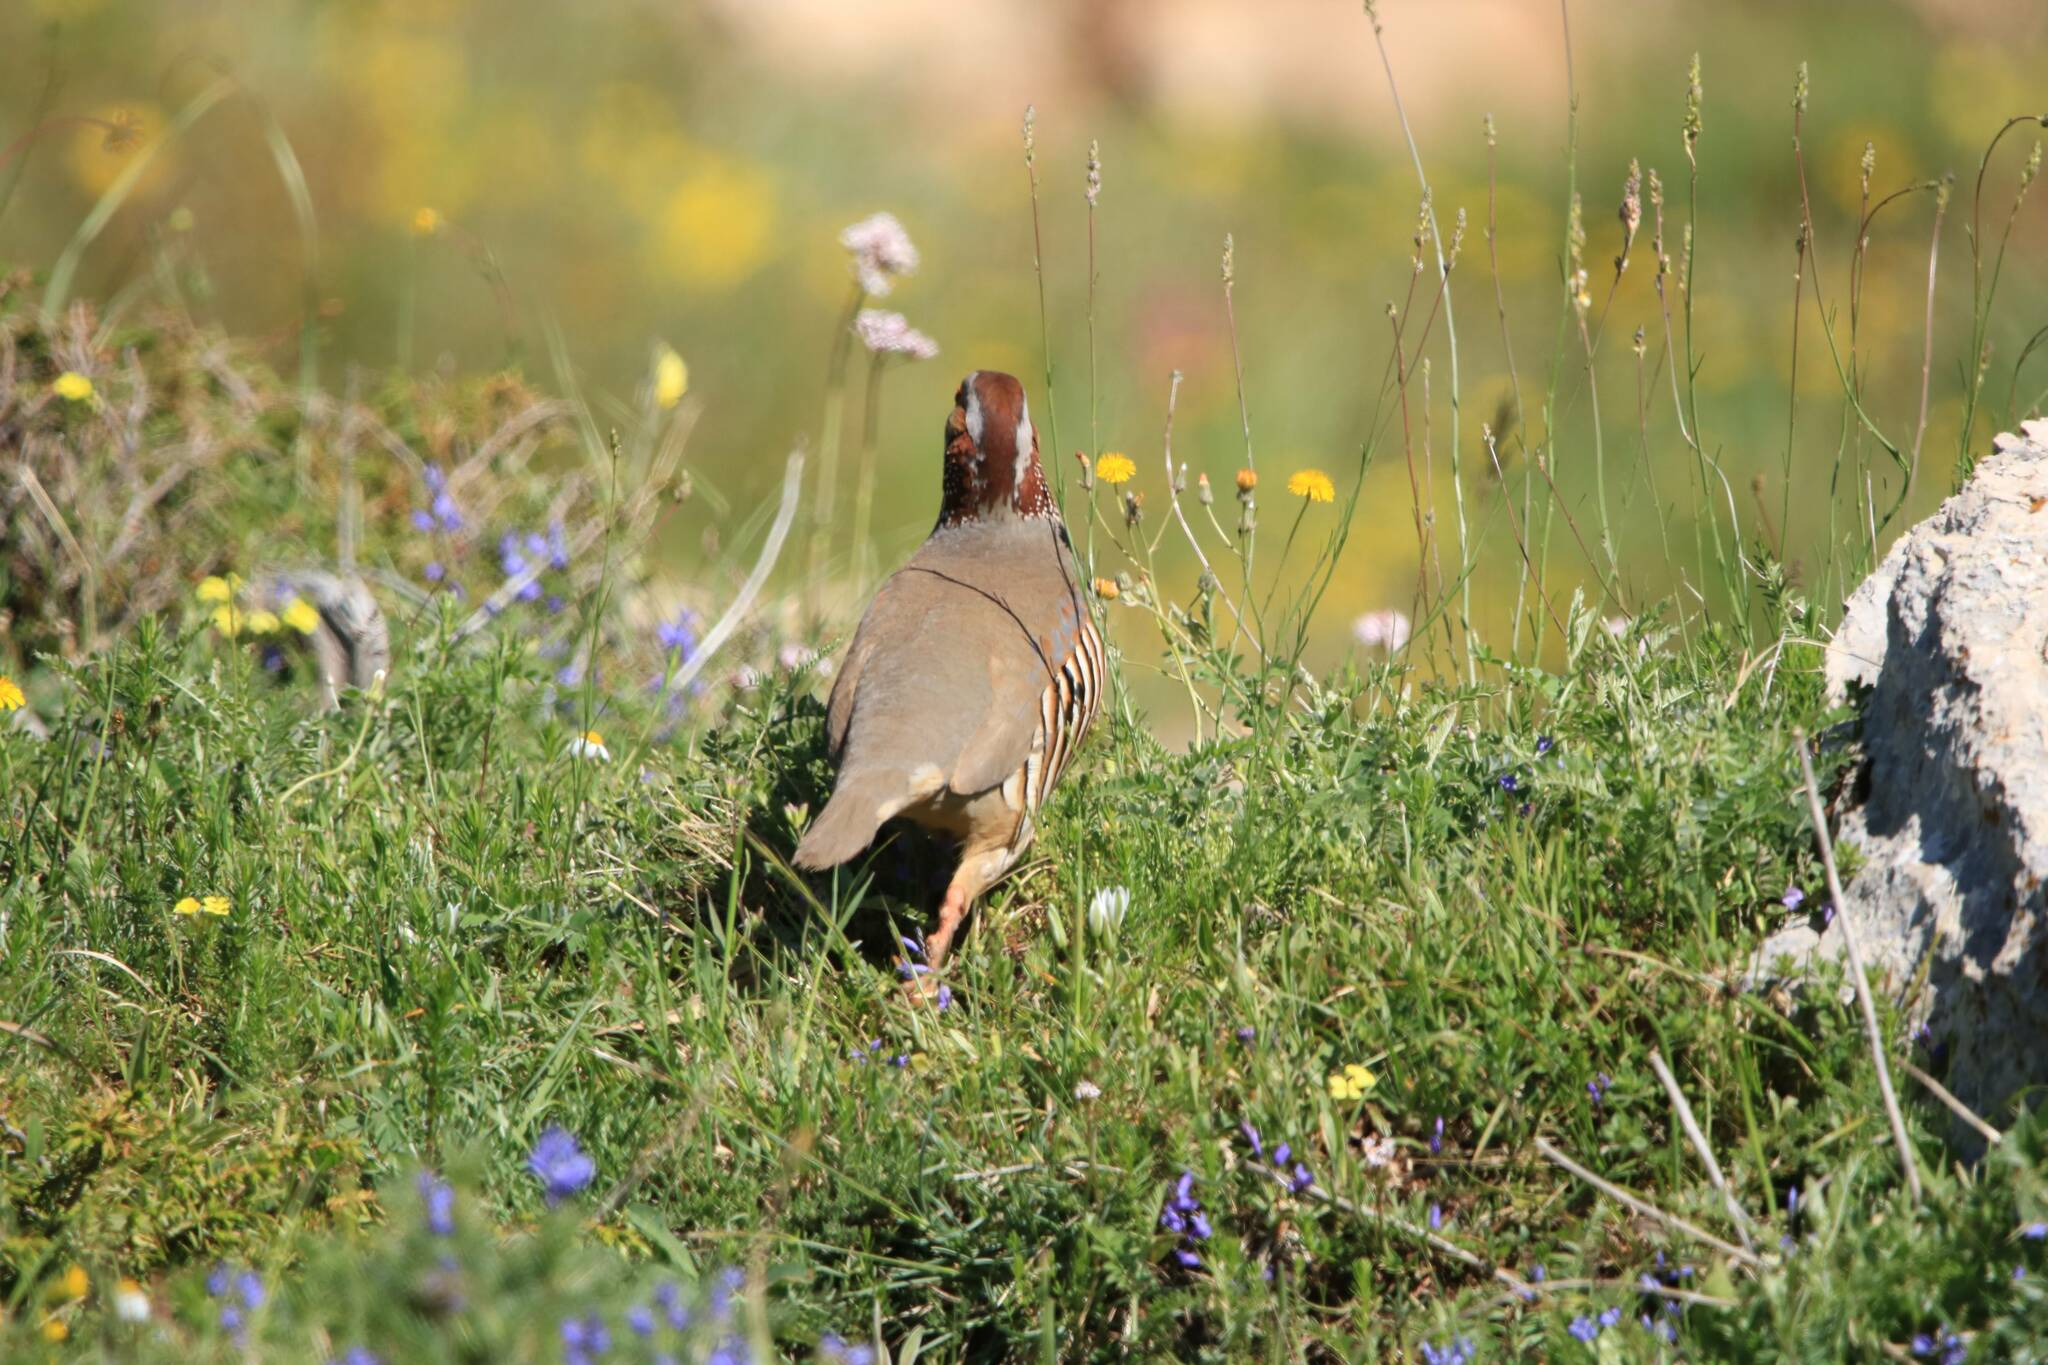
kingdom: Animalia
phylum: Chordata
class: Aves
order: Galliformes
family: Phasianidae
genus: Alectoris
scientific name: Alectoris barbara
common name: Barbary partridge
